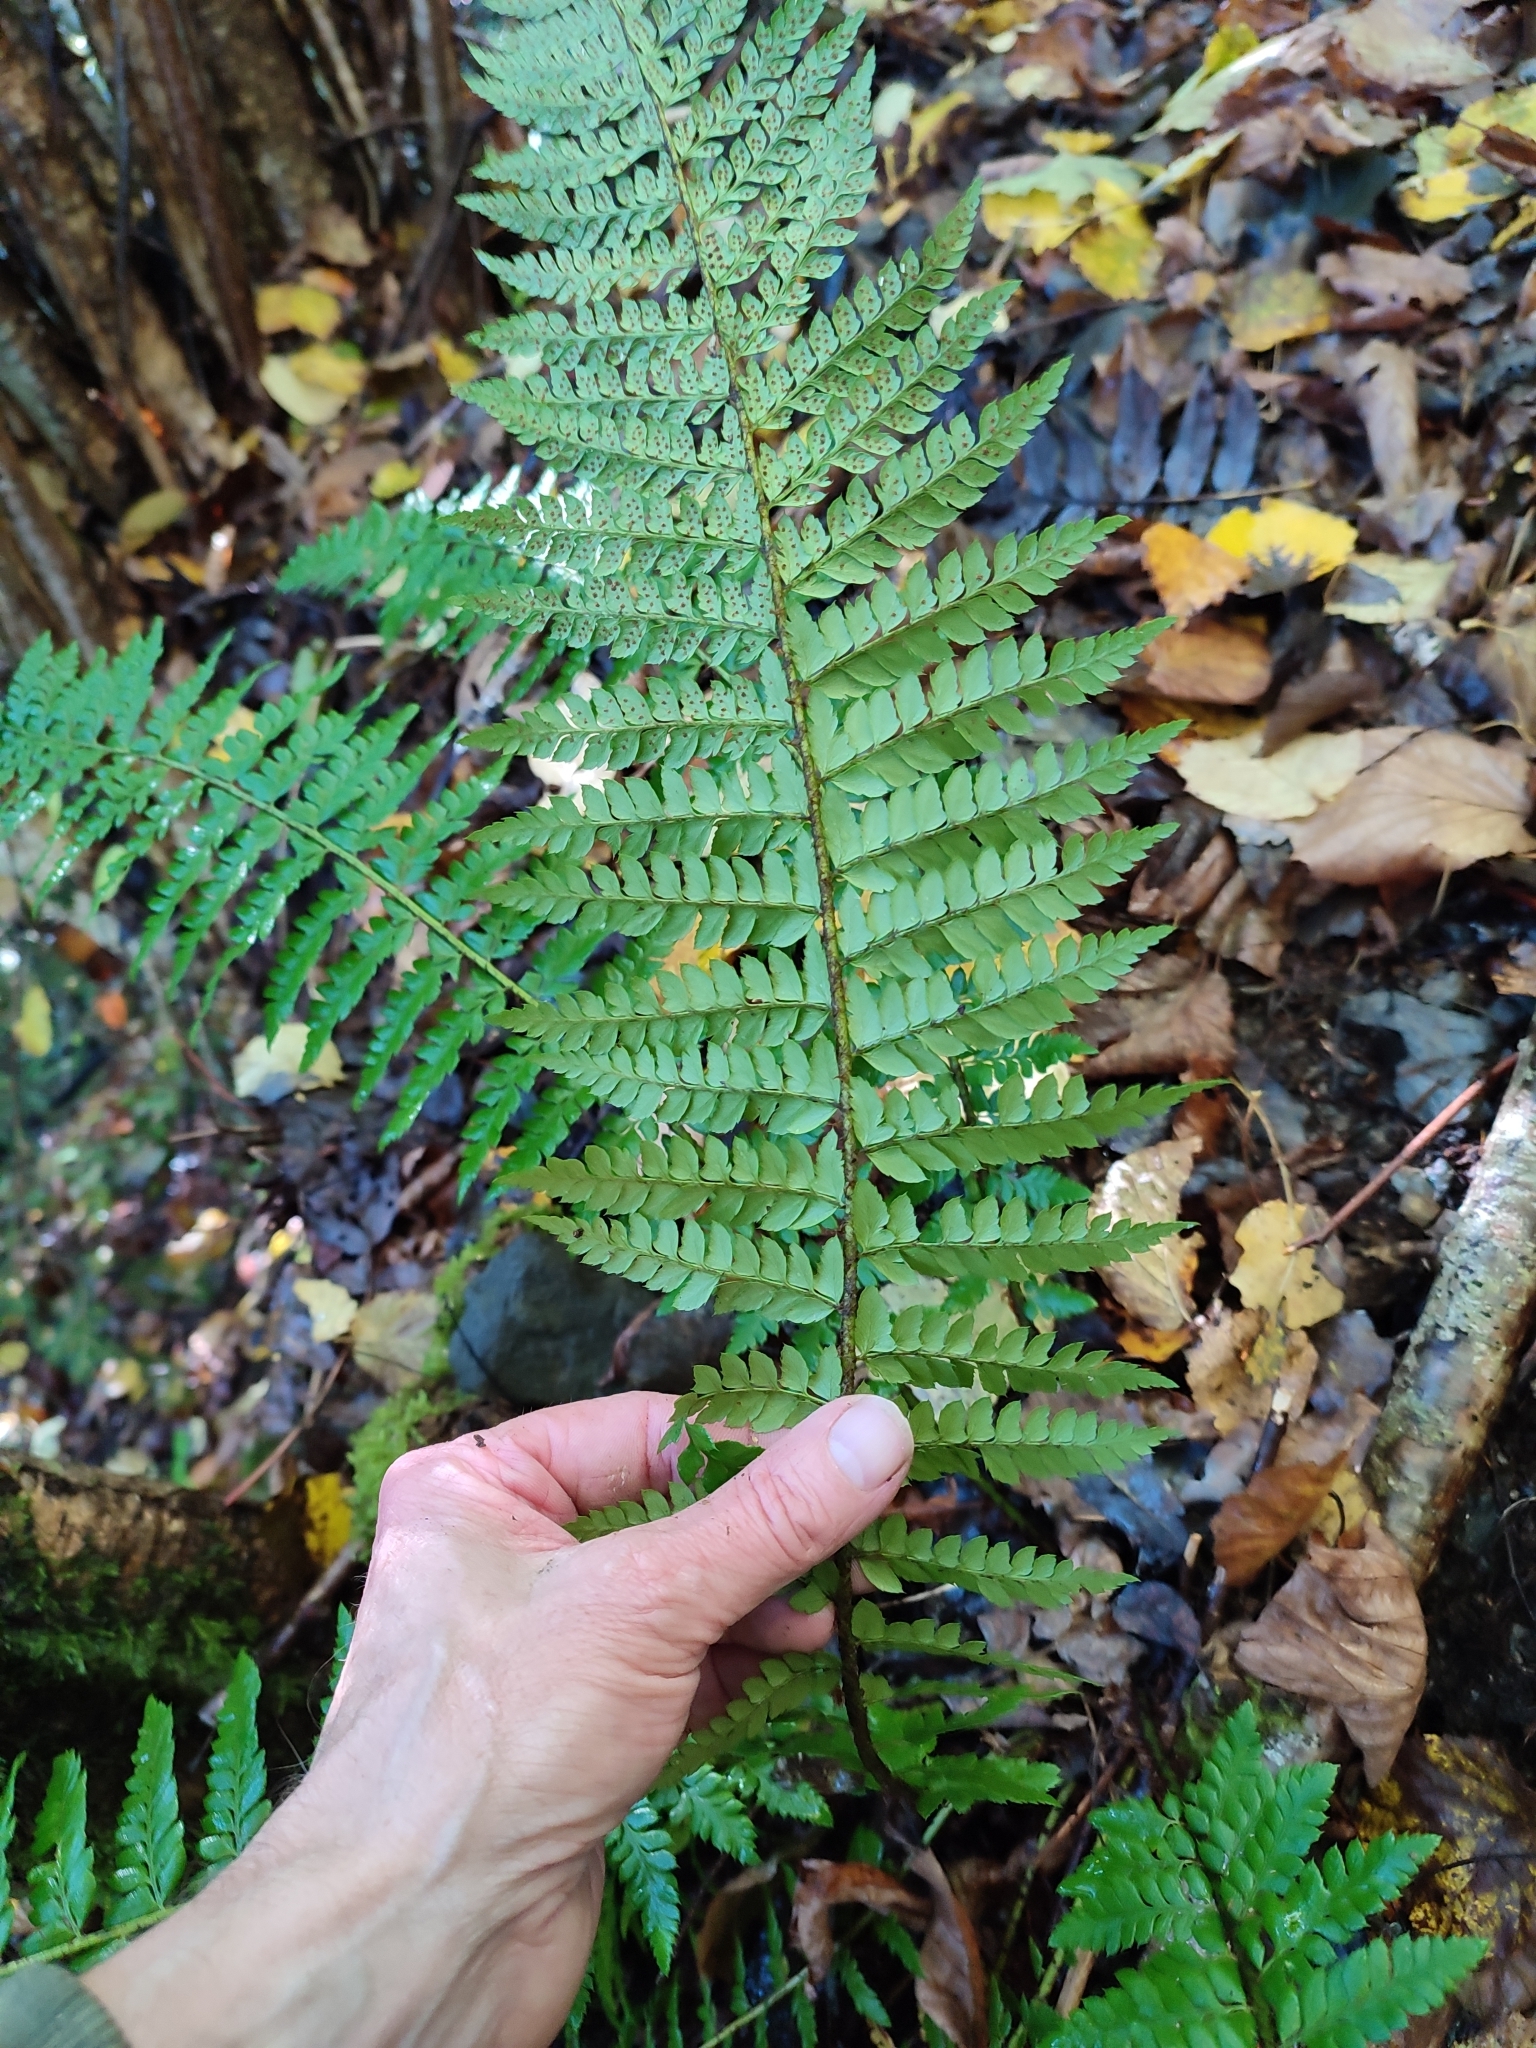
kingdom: Plantae
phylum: Tracheophyta
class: Polypodiopsida
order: Polypodiales
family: Dryopteridaceae
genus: Polystichum
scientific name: Polystichum aculeatum
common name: Hard shield-fern
